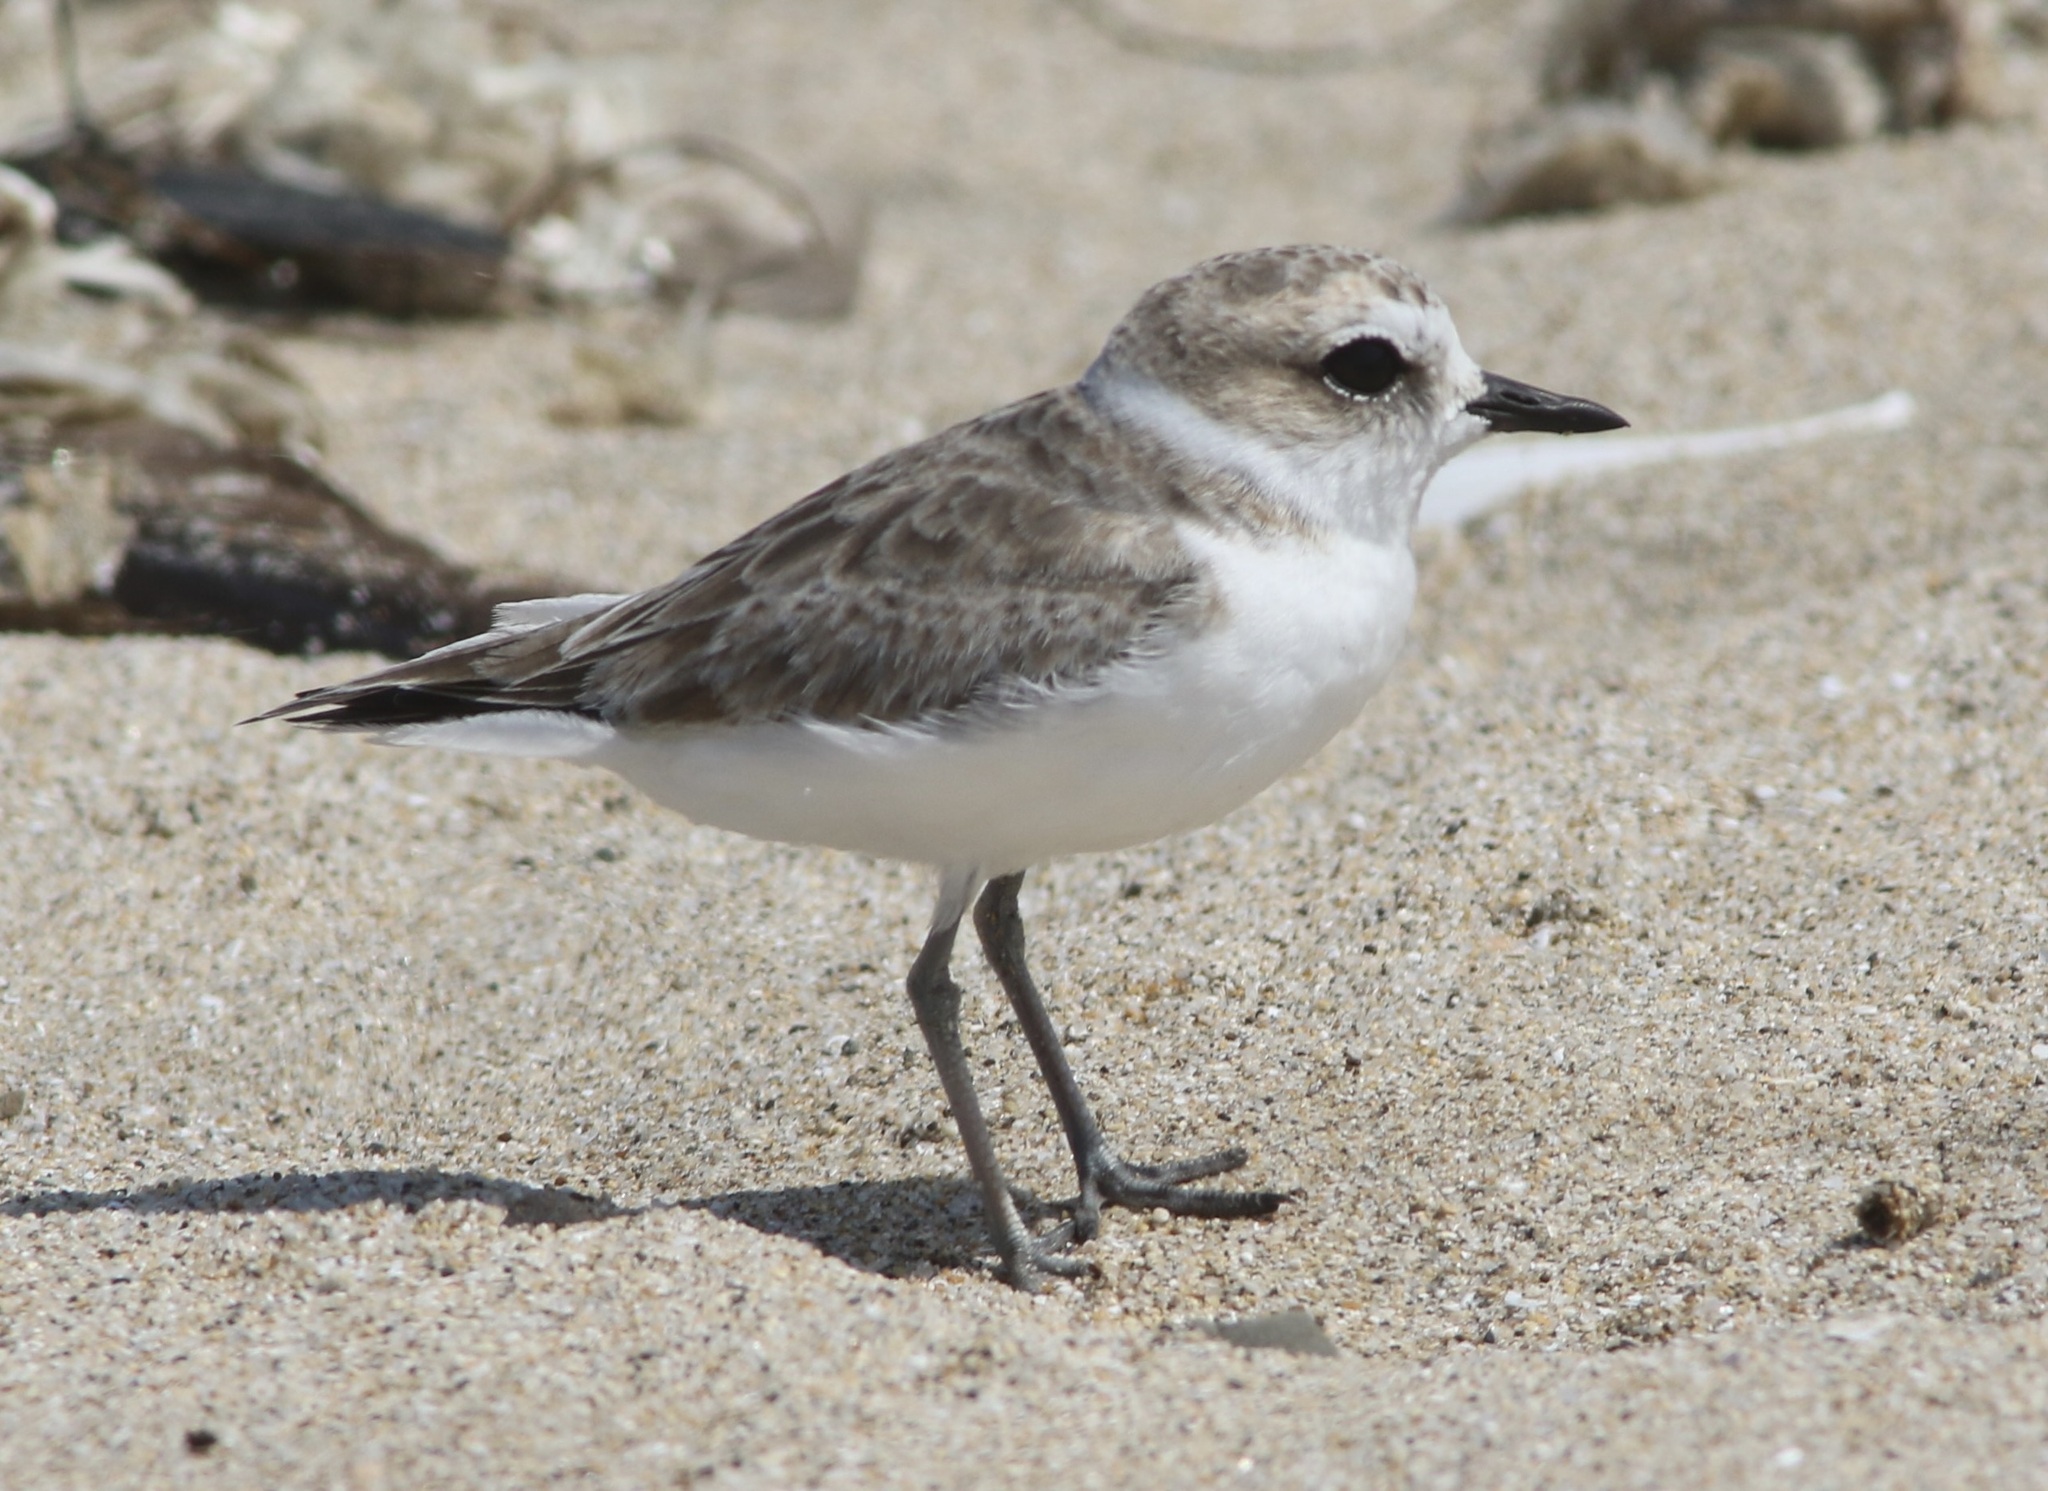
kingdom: Animalia
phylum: Chordata
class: Aves
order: Charadriiformes
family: Charadriidae
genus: Anarhynchus
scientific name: Anarhynchus
